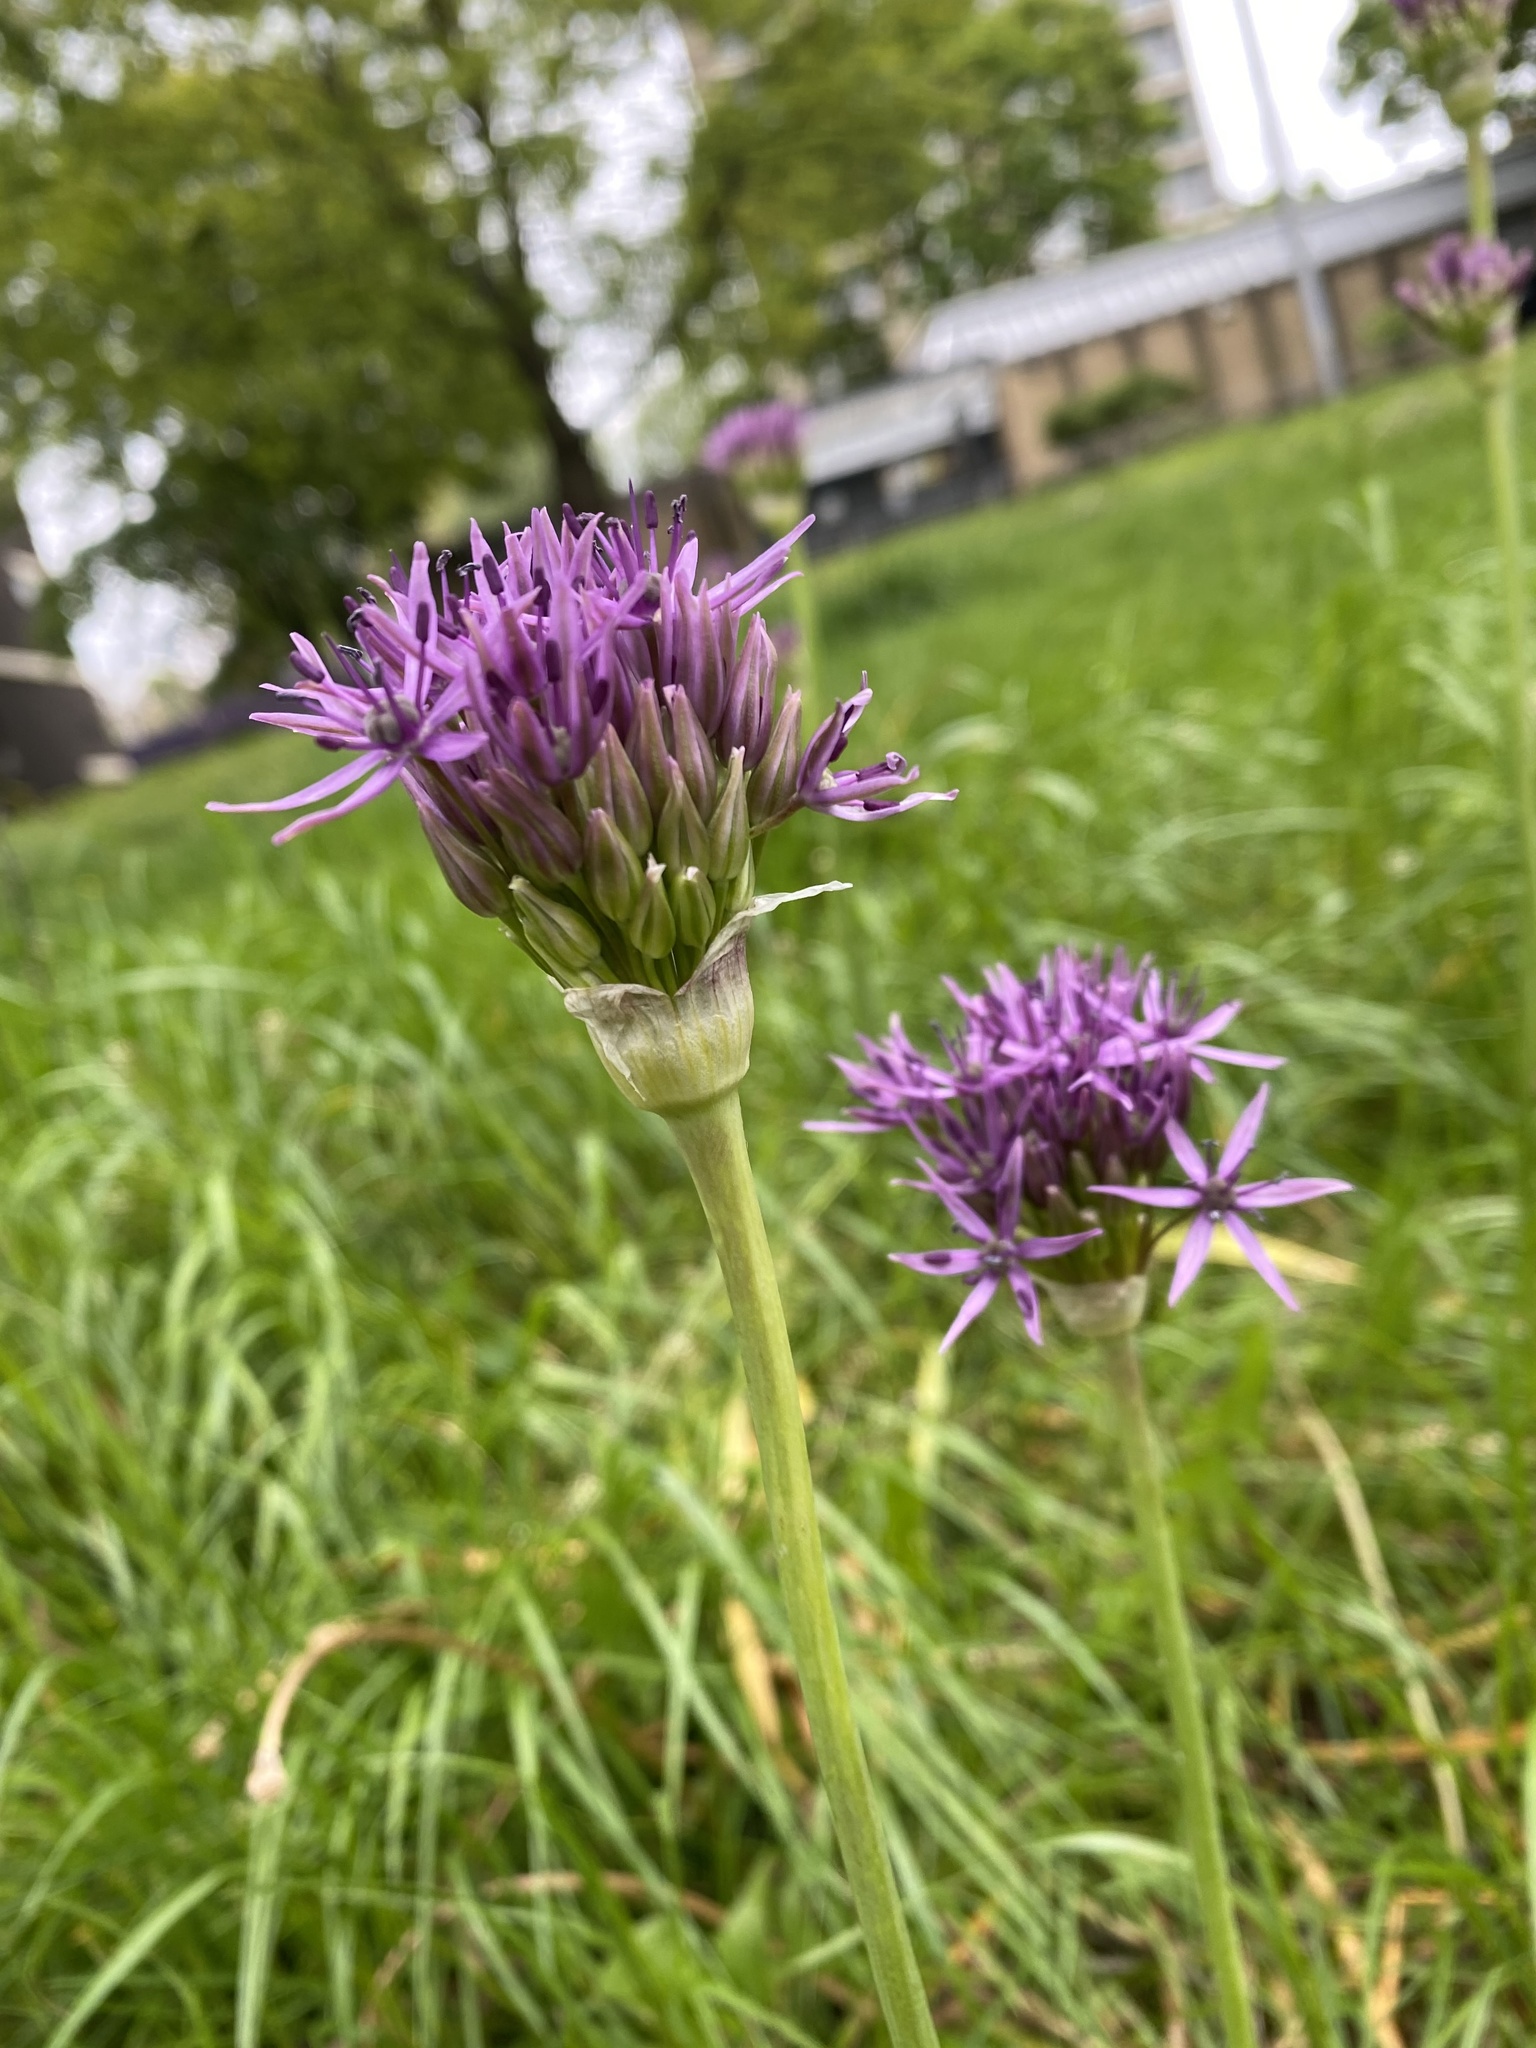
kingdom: Plantae
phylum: Tracheophyta
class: Liliopsida
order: Asparagales
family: Amaryllidaceae
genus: Allium
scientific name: Allium cristophii
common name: Persian onion
